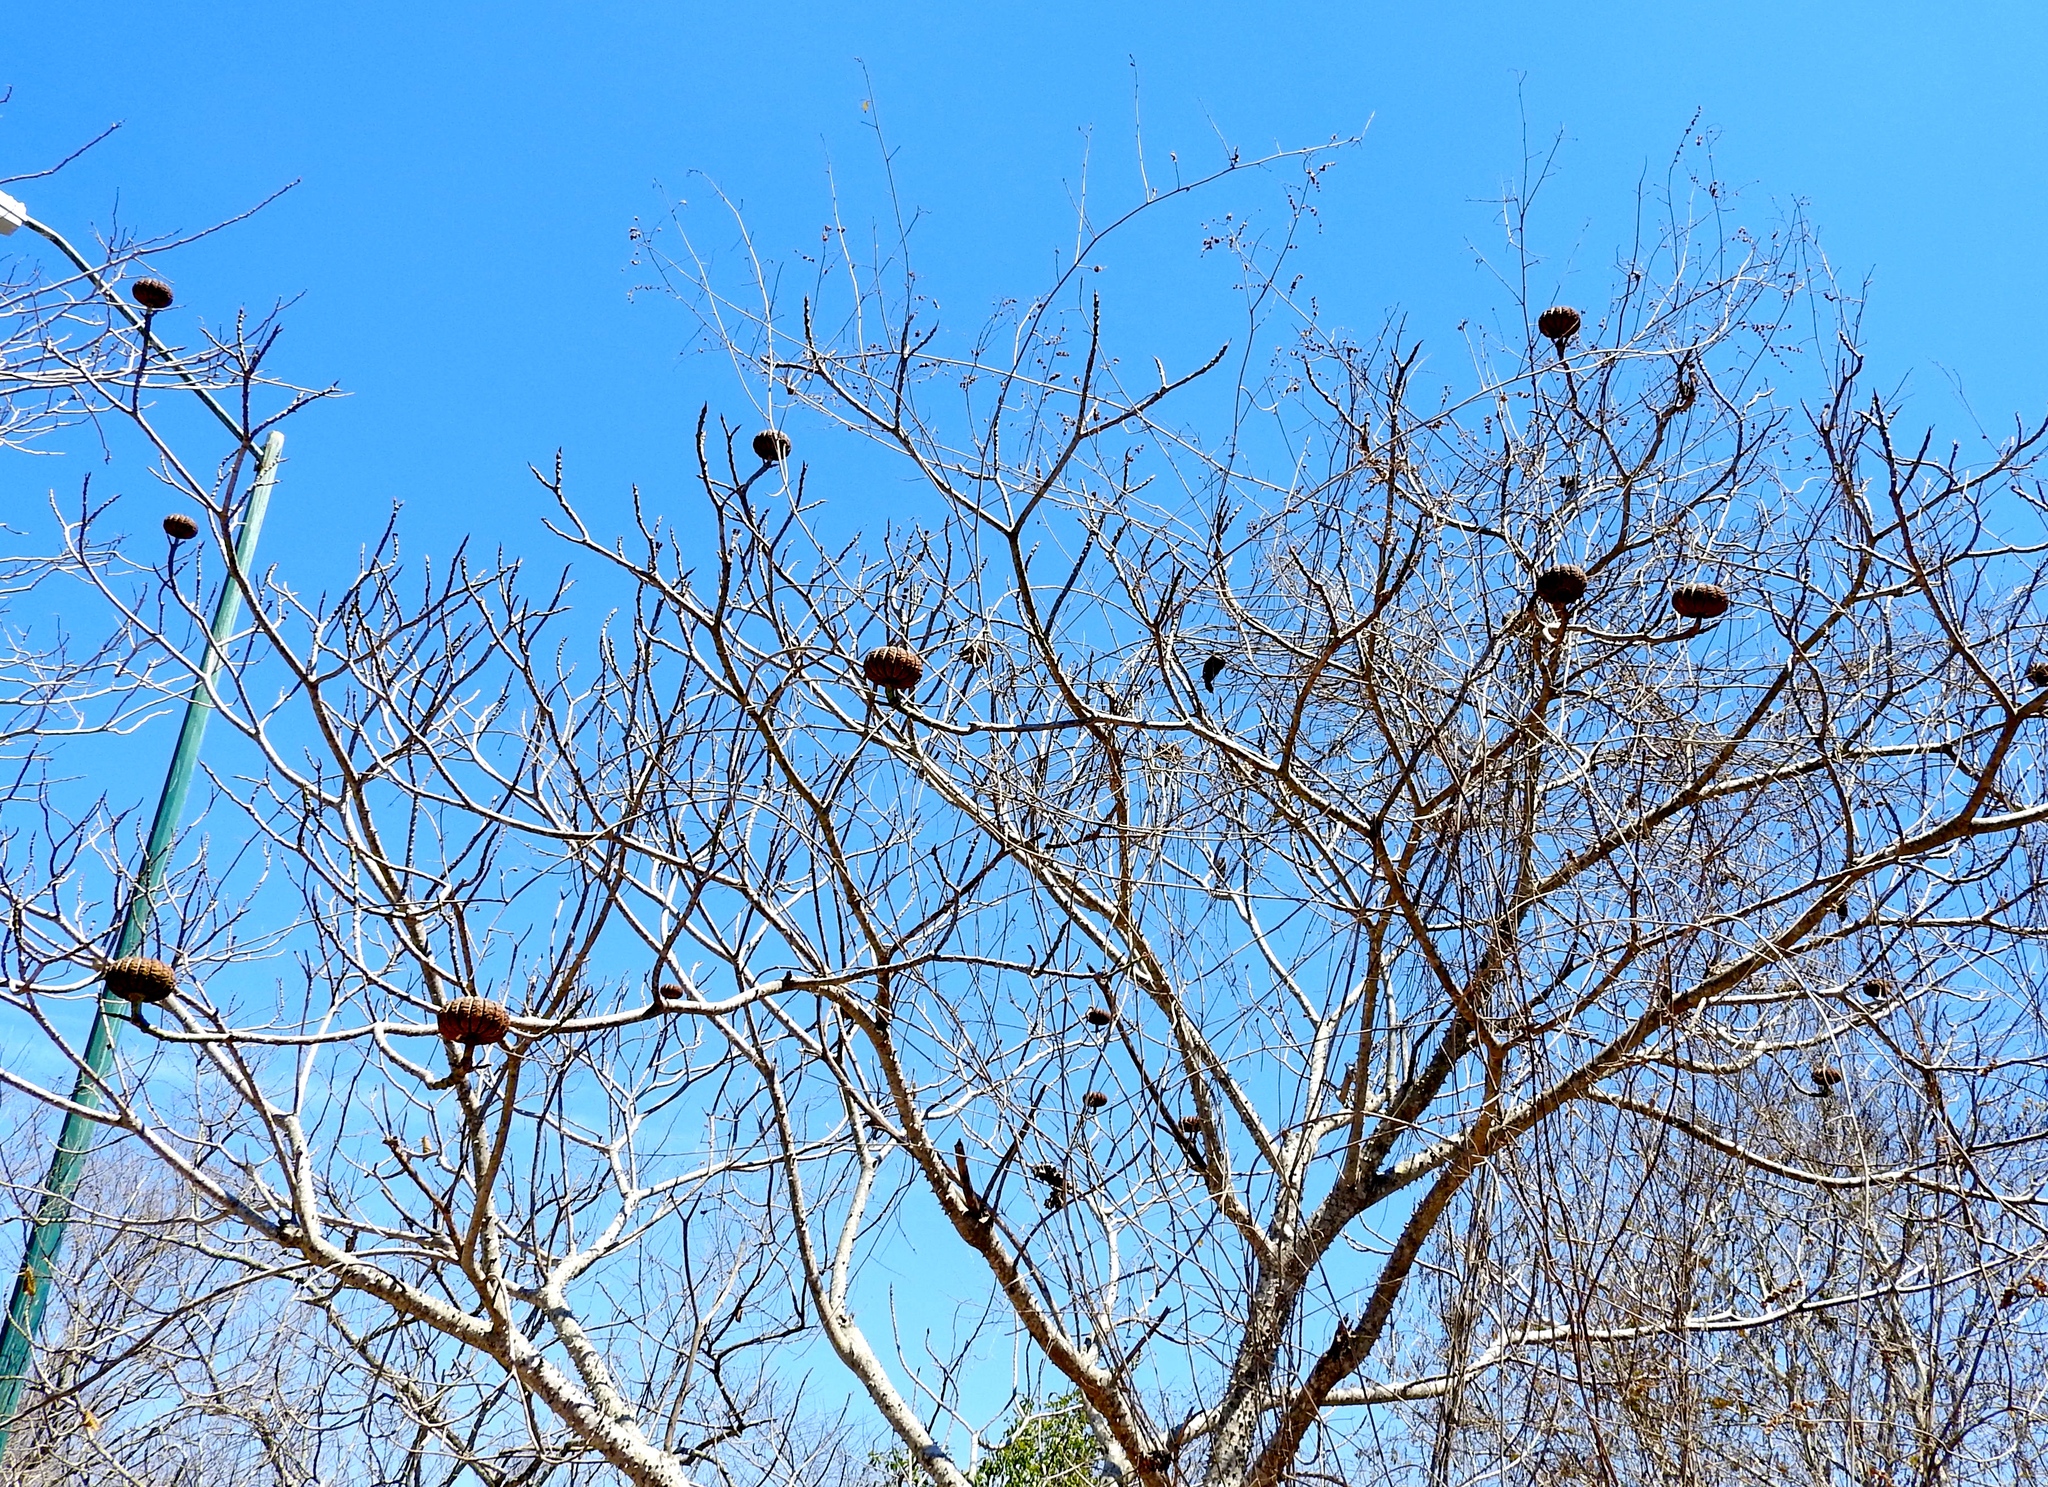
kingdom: Plantae
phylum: Tracheophyta
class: Magnoliopsida
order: Malpighiales
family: Euphorbiaceae
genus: Hura
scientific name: Hura polyandra
